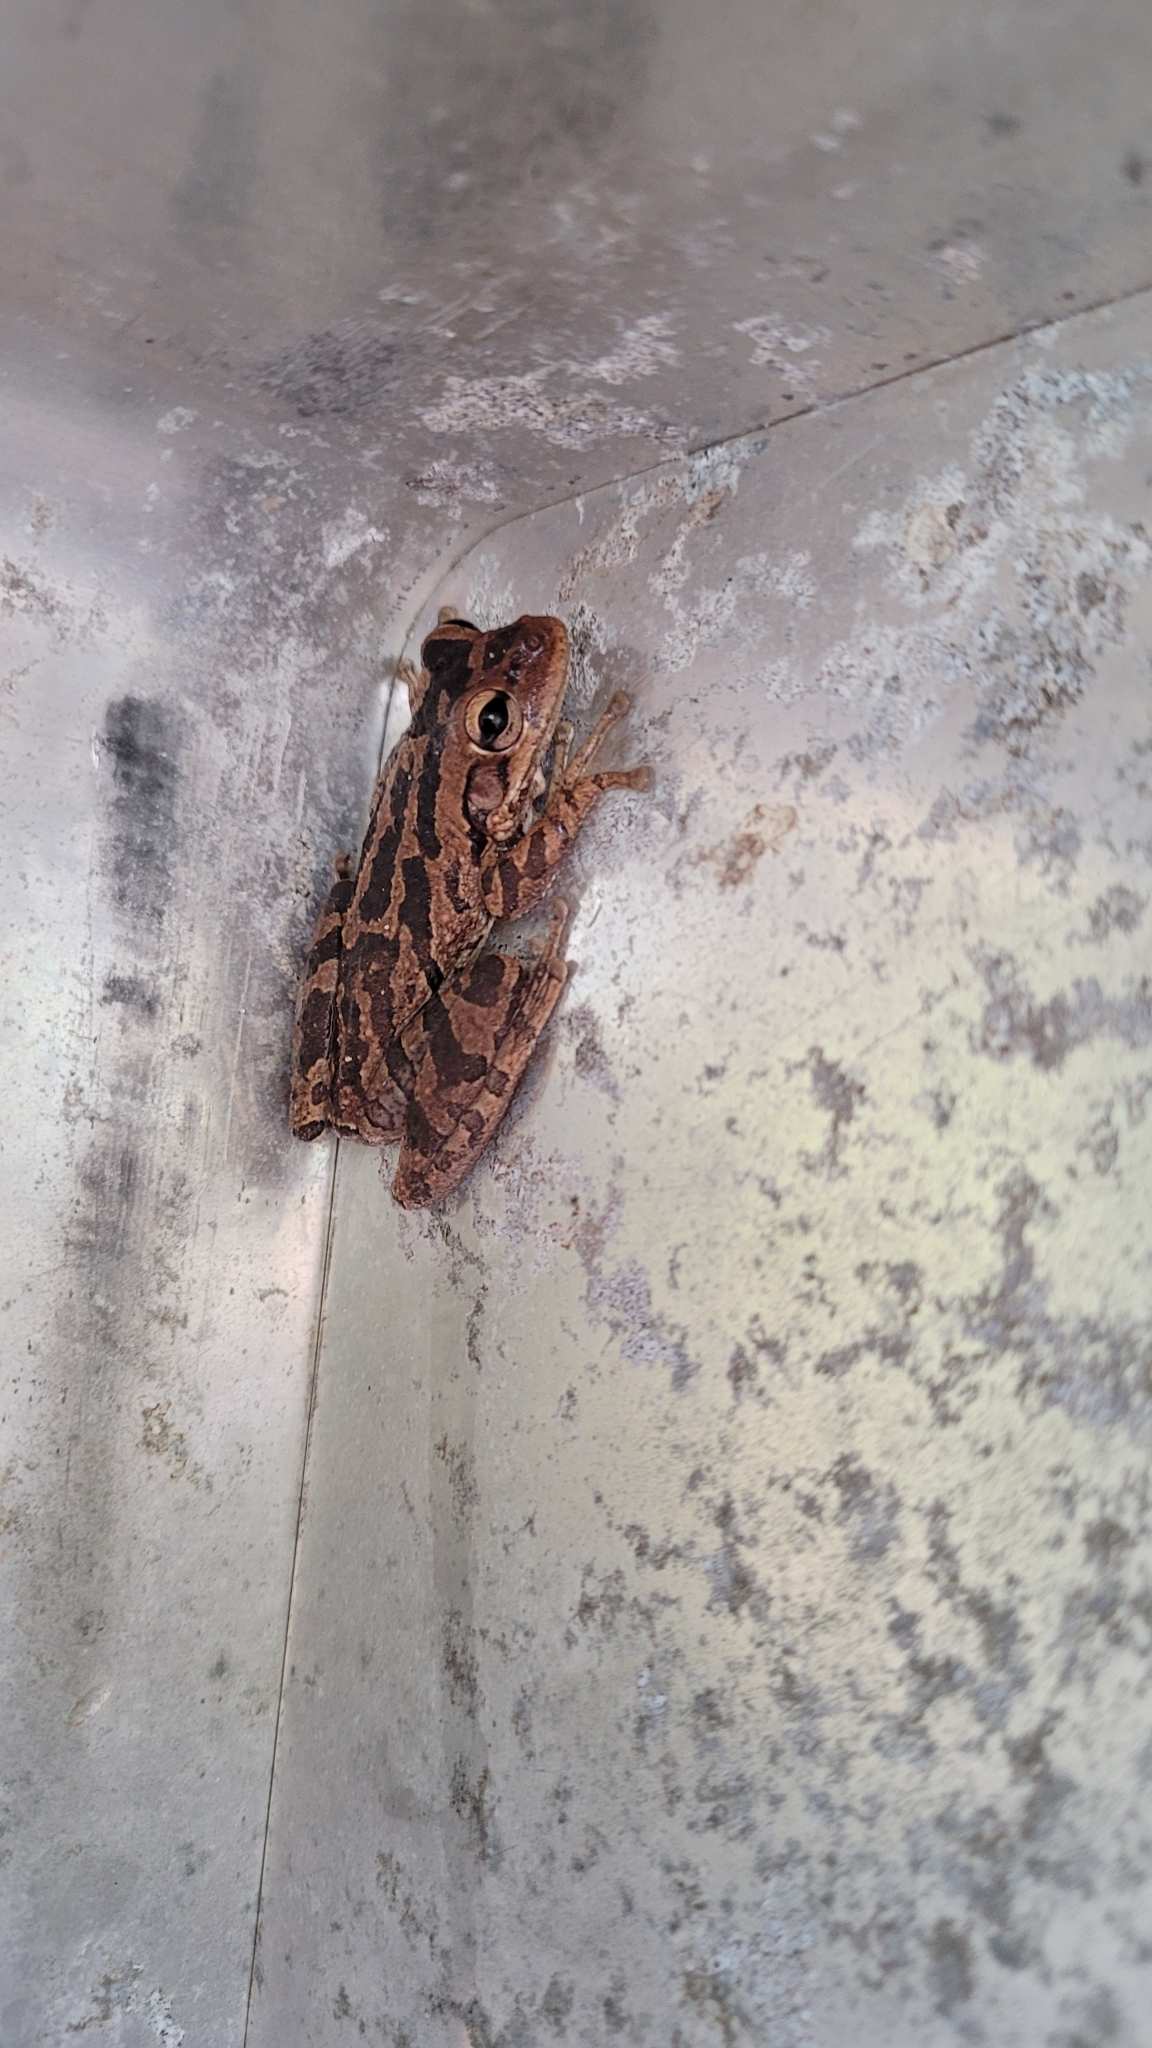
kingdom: Animalia
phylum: Chordata
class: Amphibia
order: Anura
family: Hylidae
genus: Osteopilus
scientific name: Osteopilus septentrionalis
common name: Cuban treefrog
